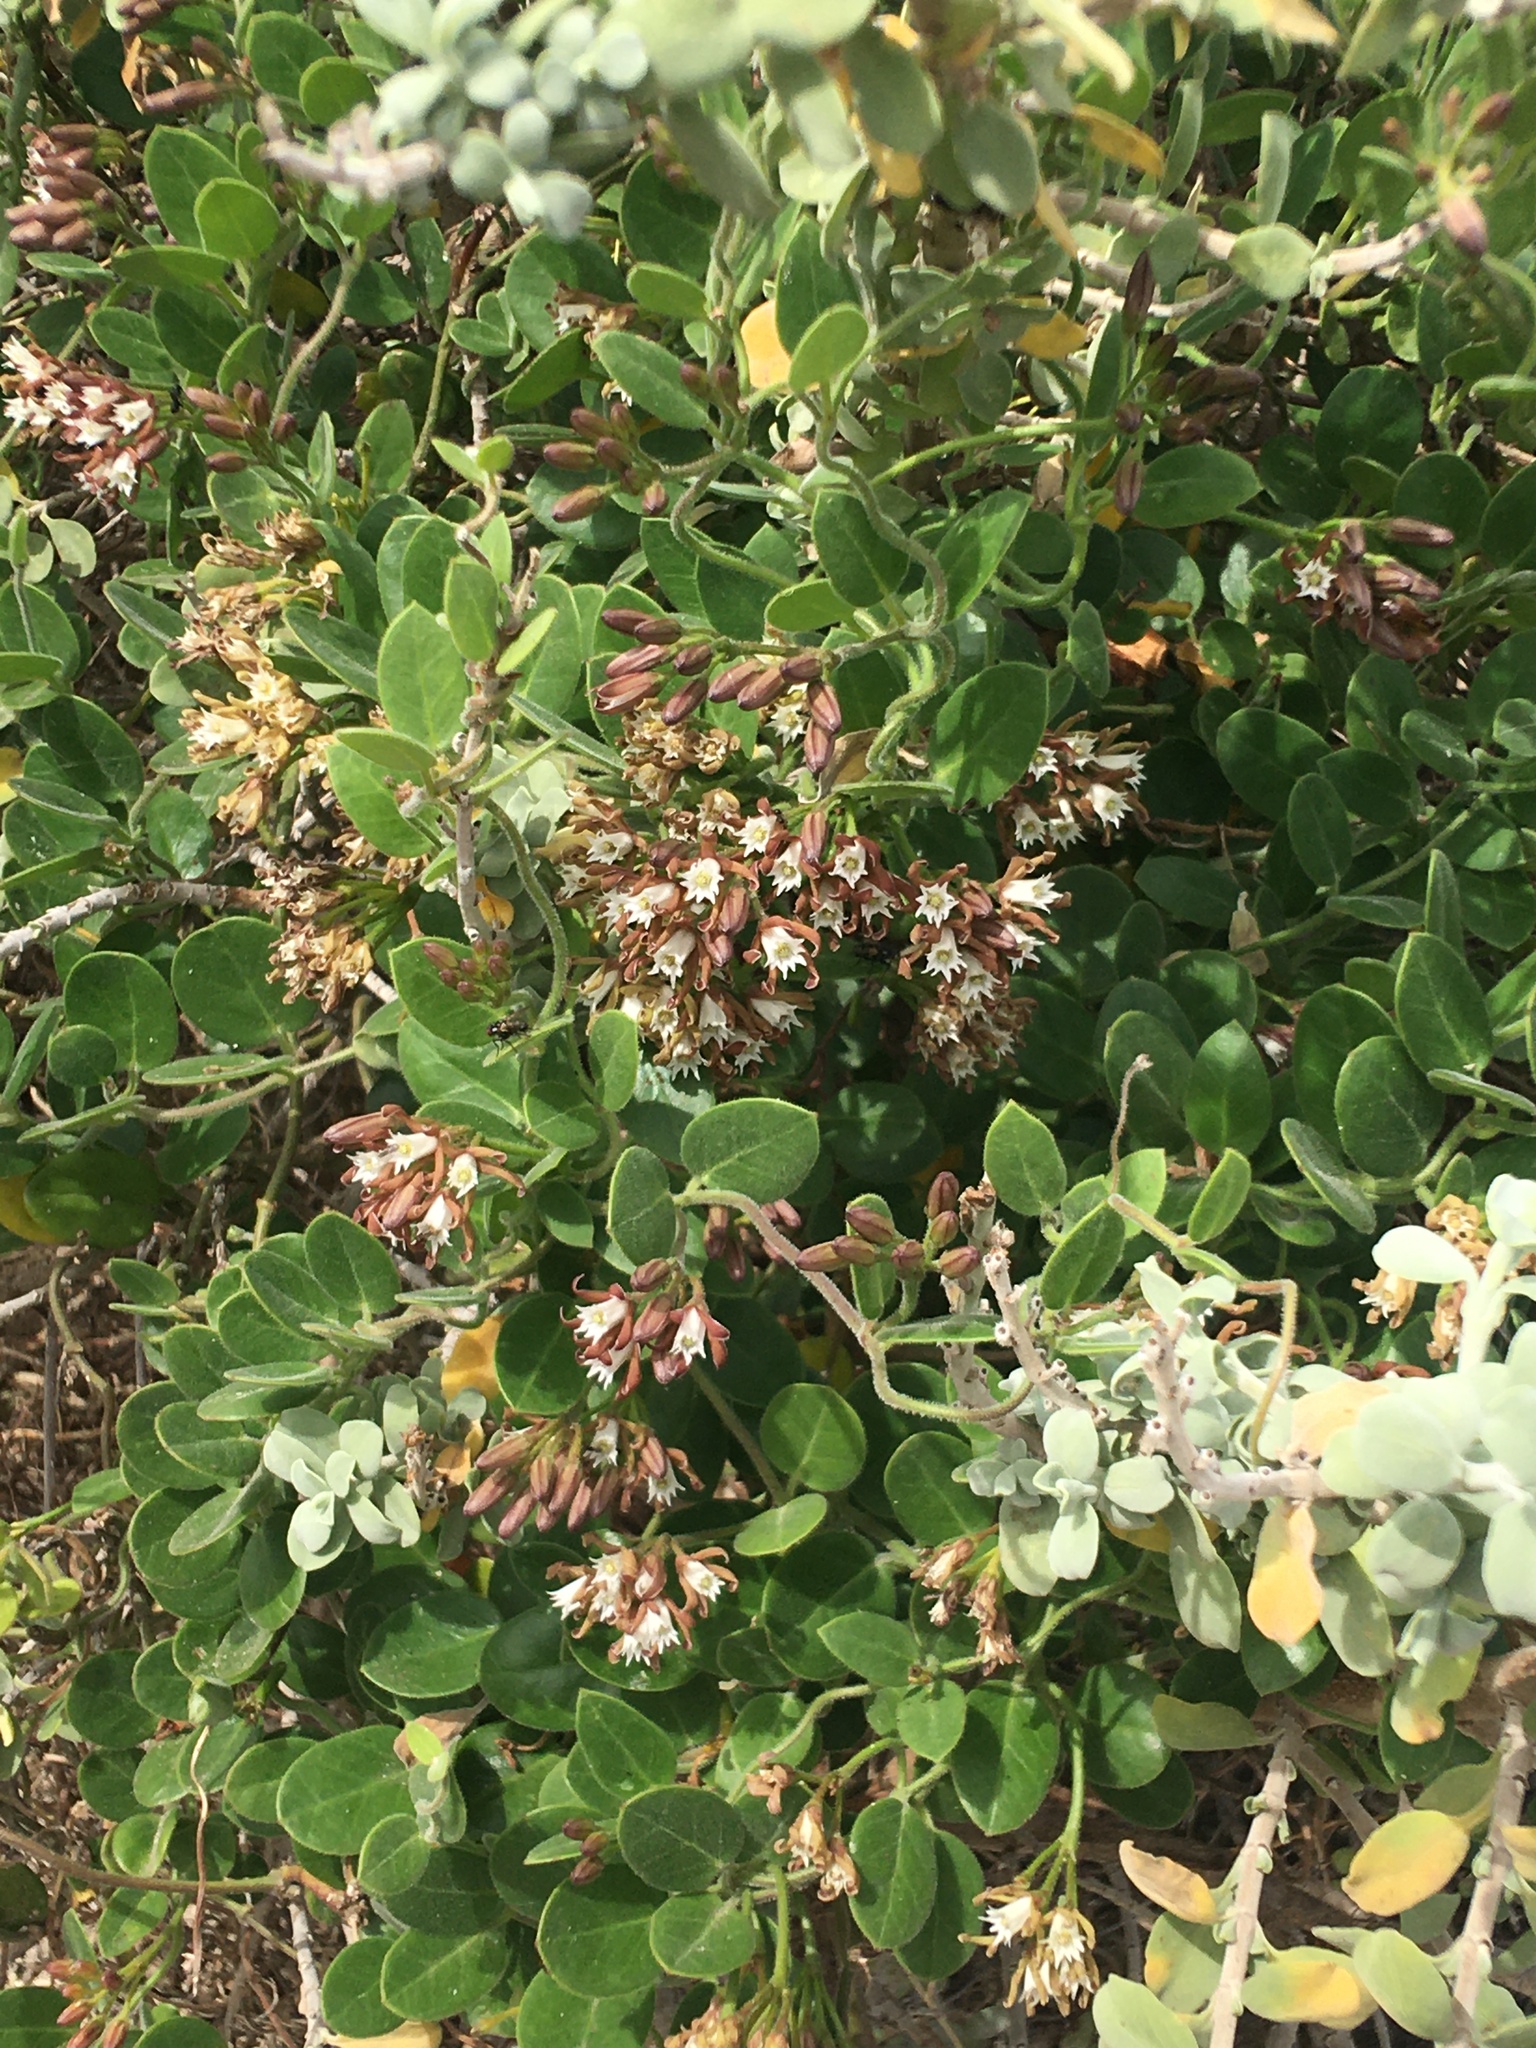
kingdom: Plantae
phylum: Tracheophyta
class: Magnoliopsida
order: Gentianales
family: Apocynaceae
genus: Cynanchum
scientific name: Cynanchum africanum
